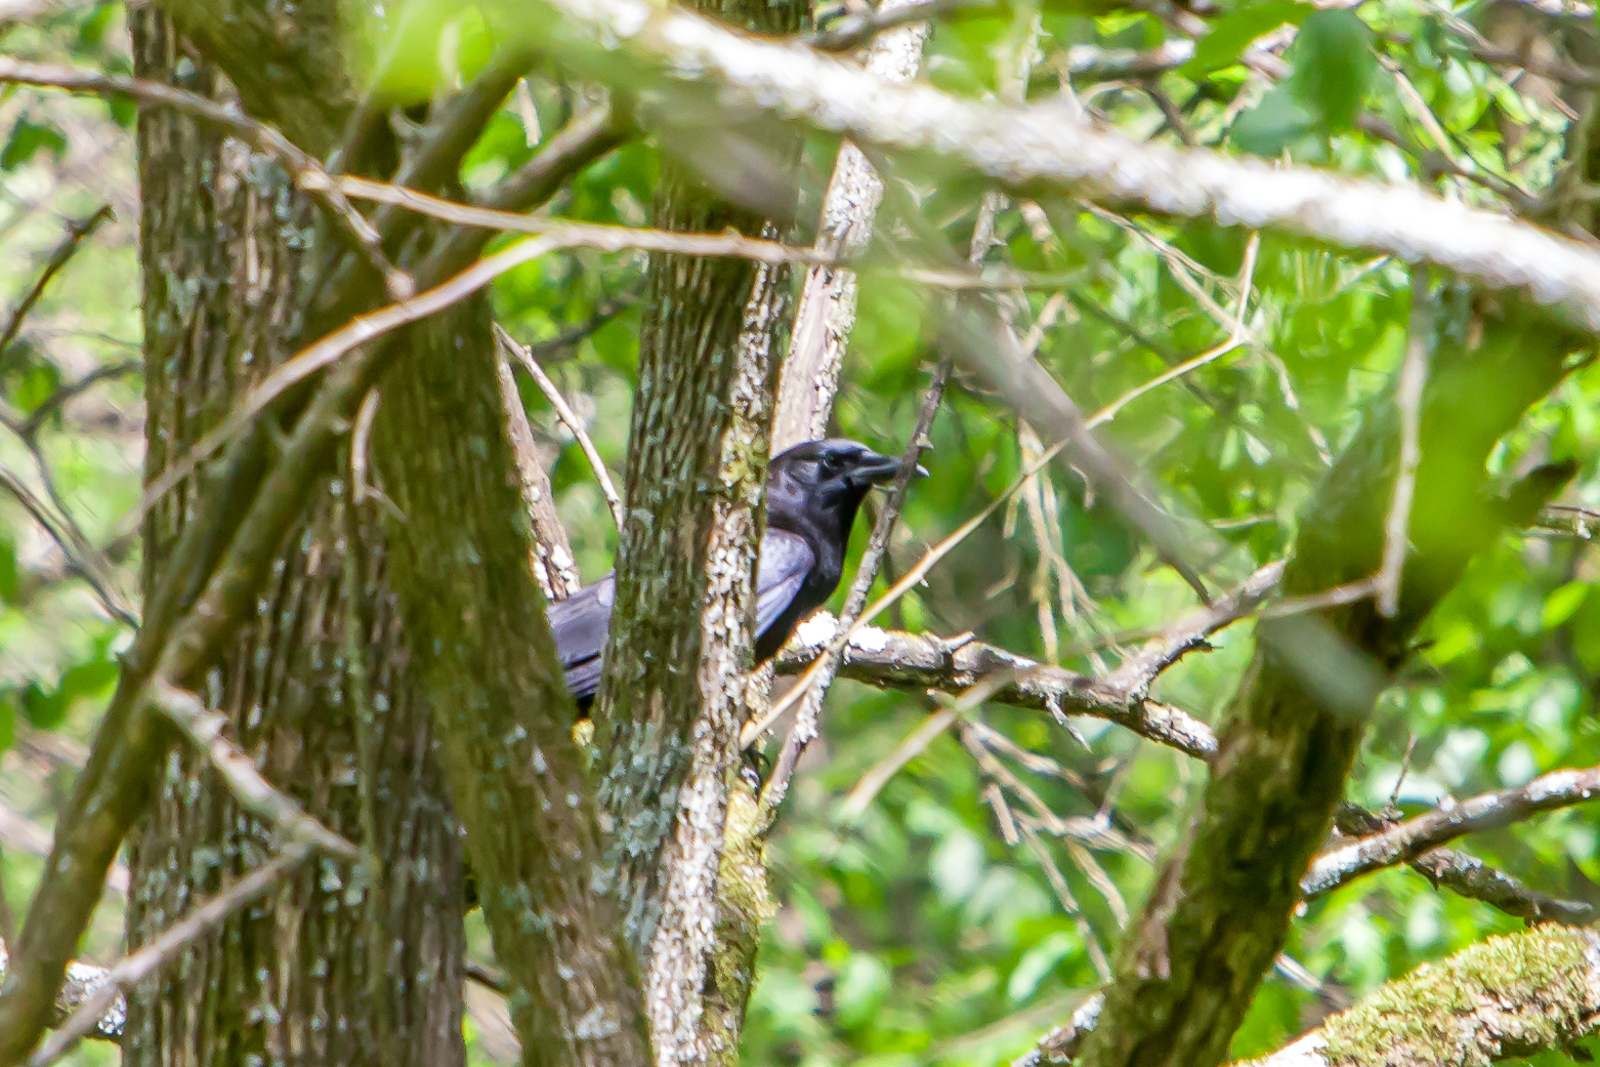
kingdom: Animalia
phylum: Chordata
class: Aves
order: Passeriformes
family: Corvidae
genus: Corvus
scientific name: Corvus brachyrhynchos
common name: American crow
